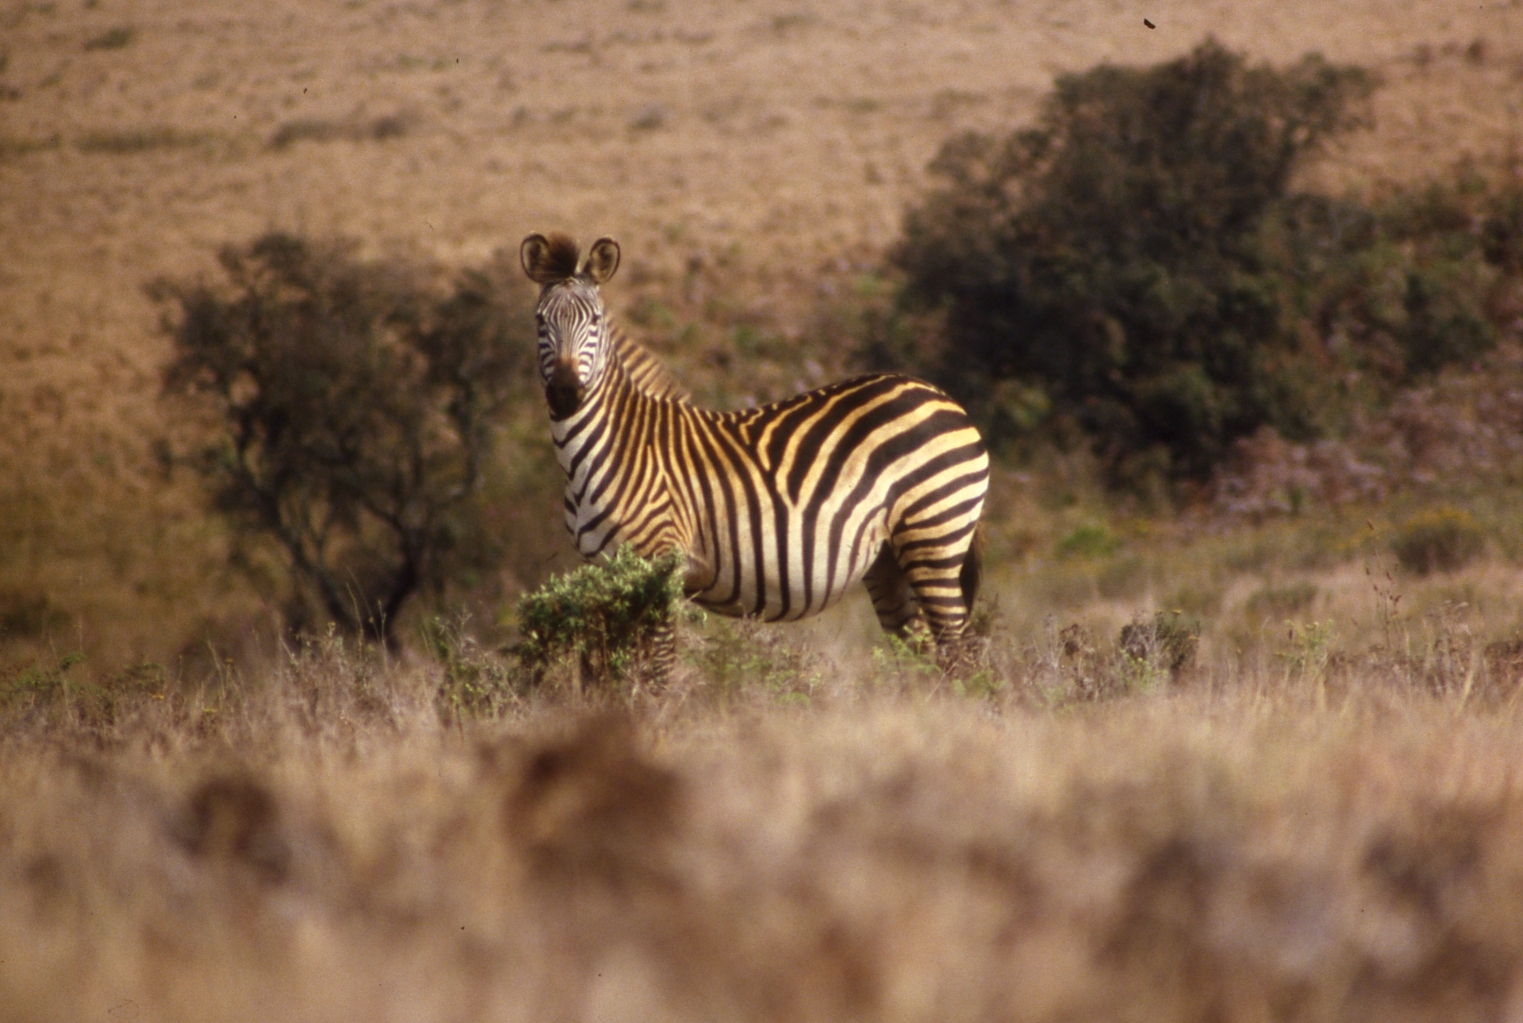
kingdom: Animalia
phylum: Chordata
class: Mammalia
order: Perissodactyla
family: Equidae
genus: Equus
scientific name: Equus quagga
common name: Plains zebra
